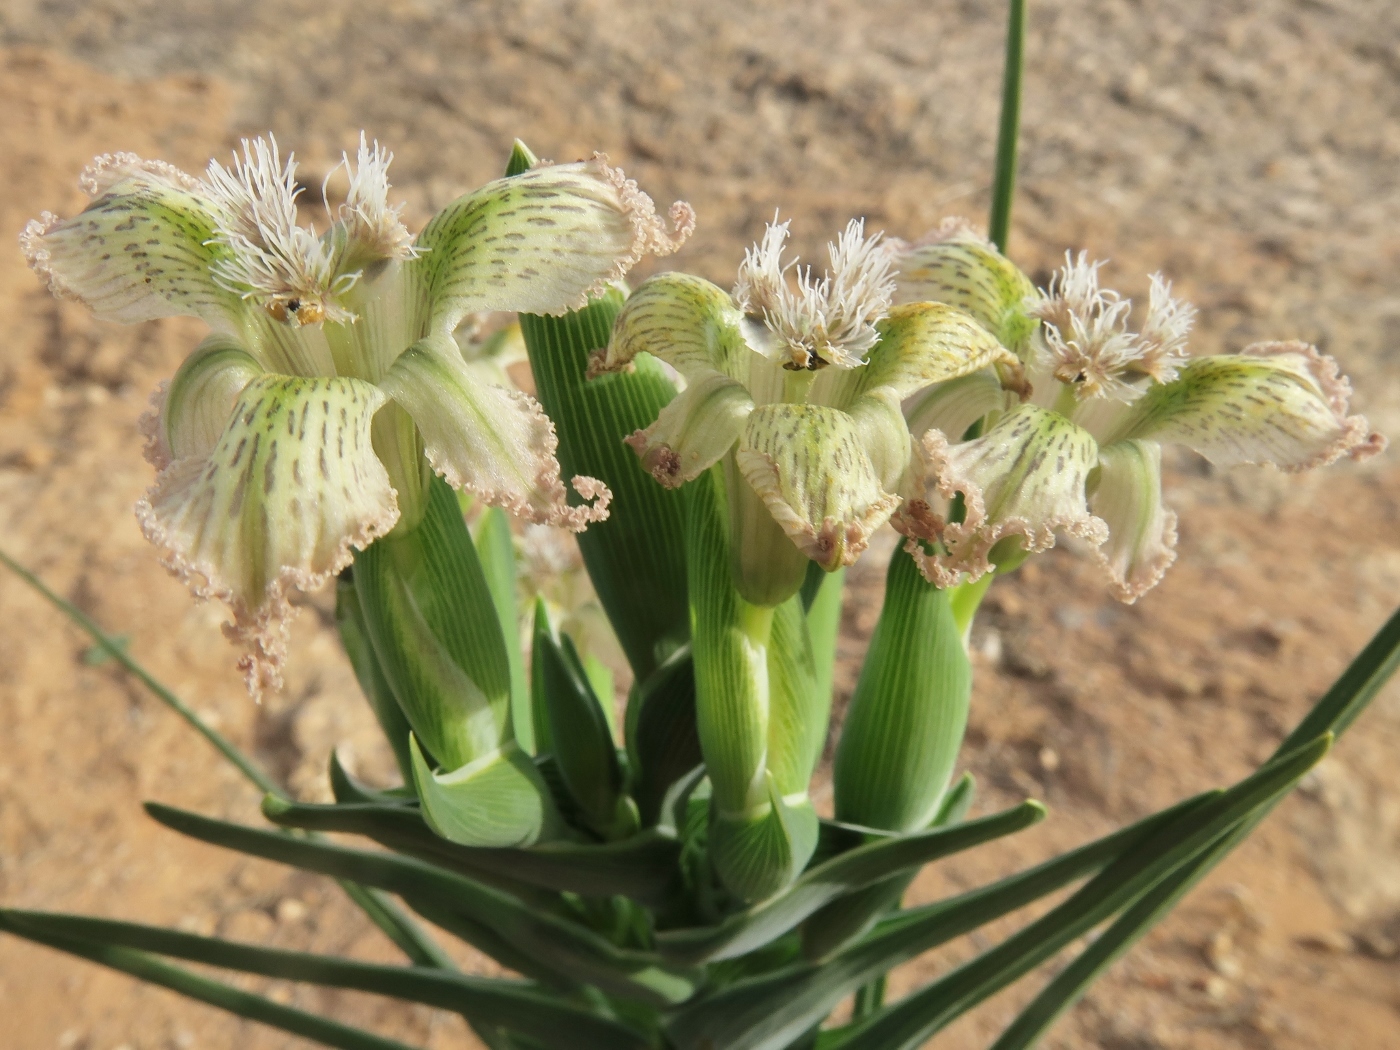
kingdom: Plantae
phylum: Tracheophyta
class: Liliopsida
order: Asparagales
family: Iridaceae
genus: Ferraria
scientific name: Ferraria ferrariola
